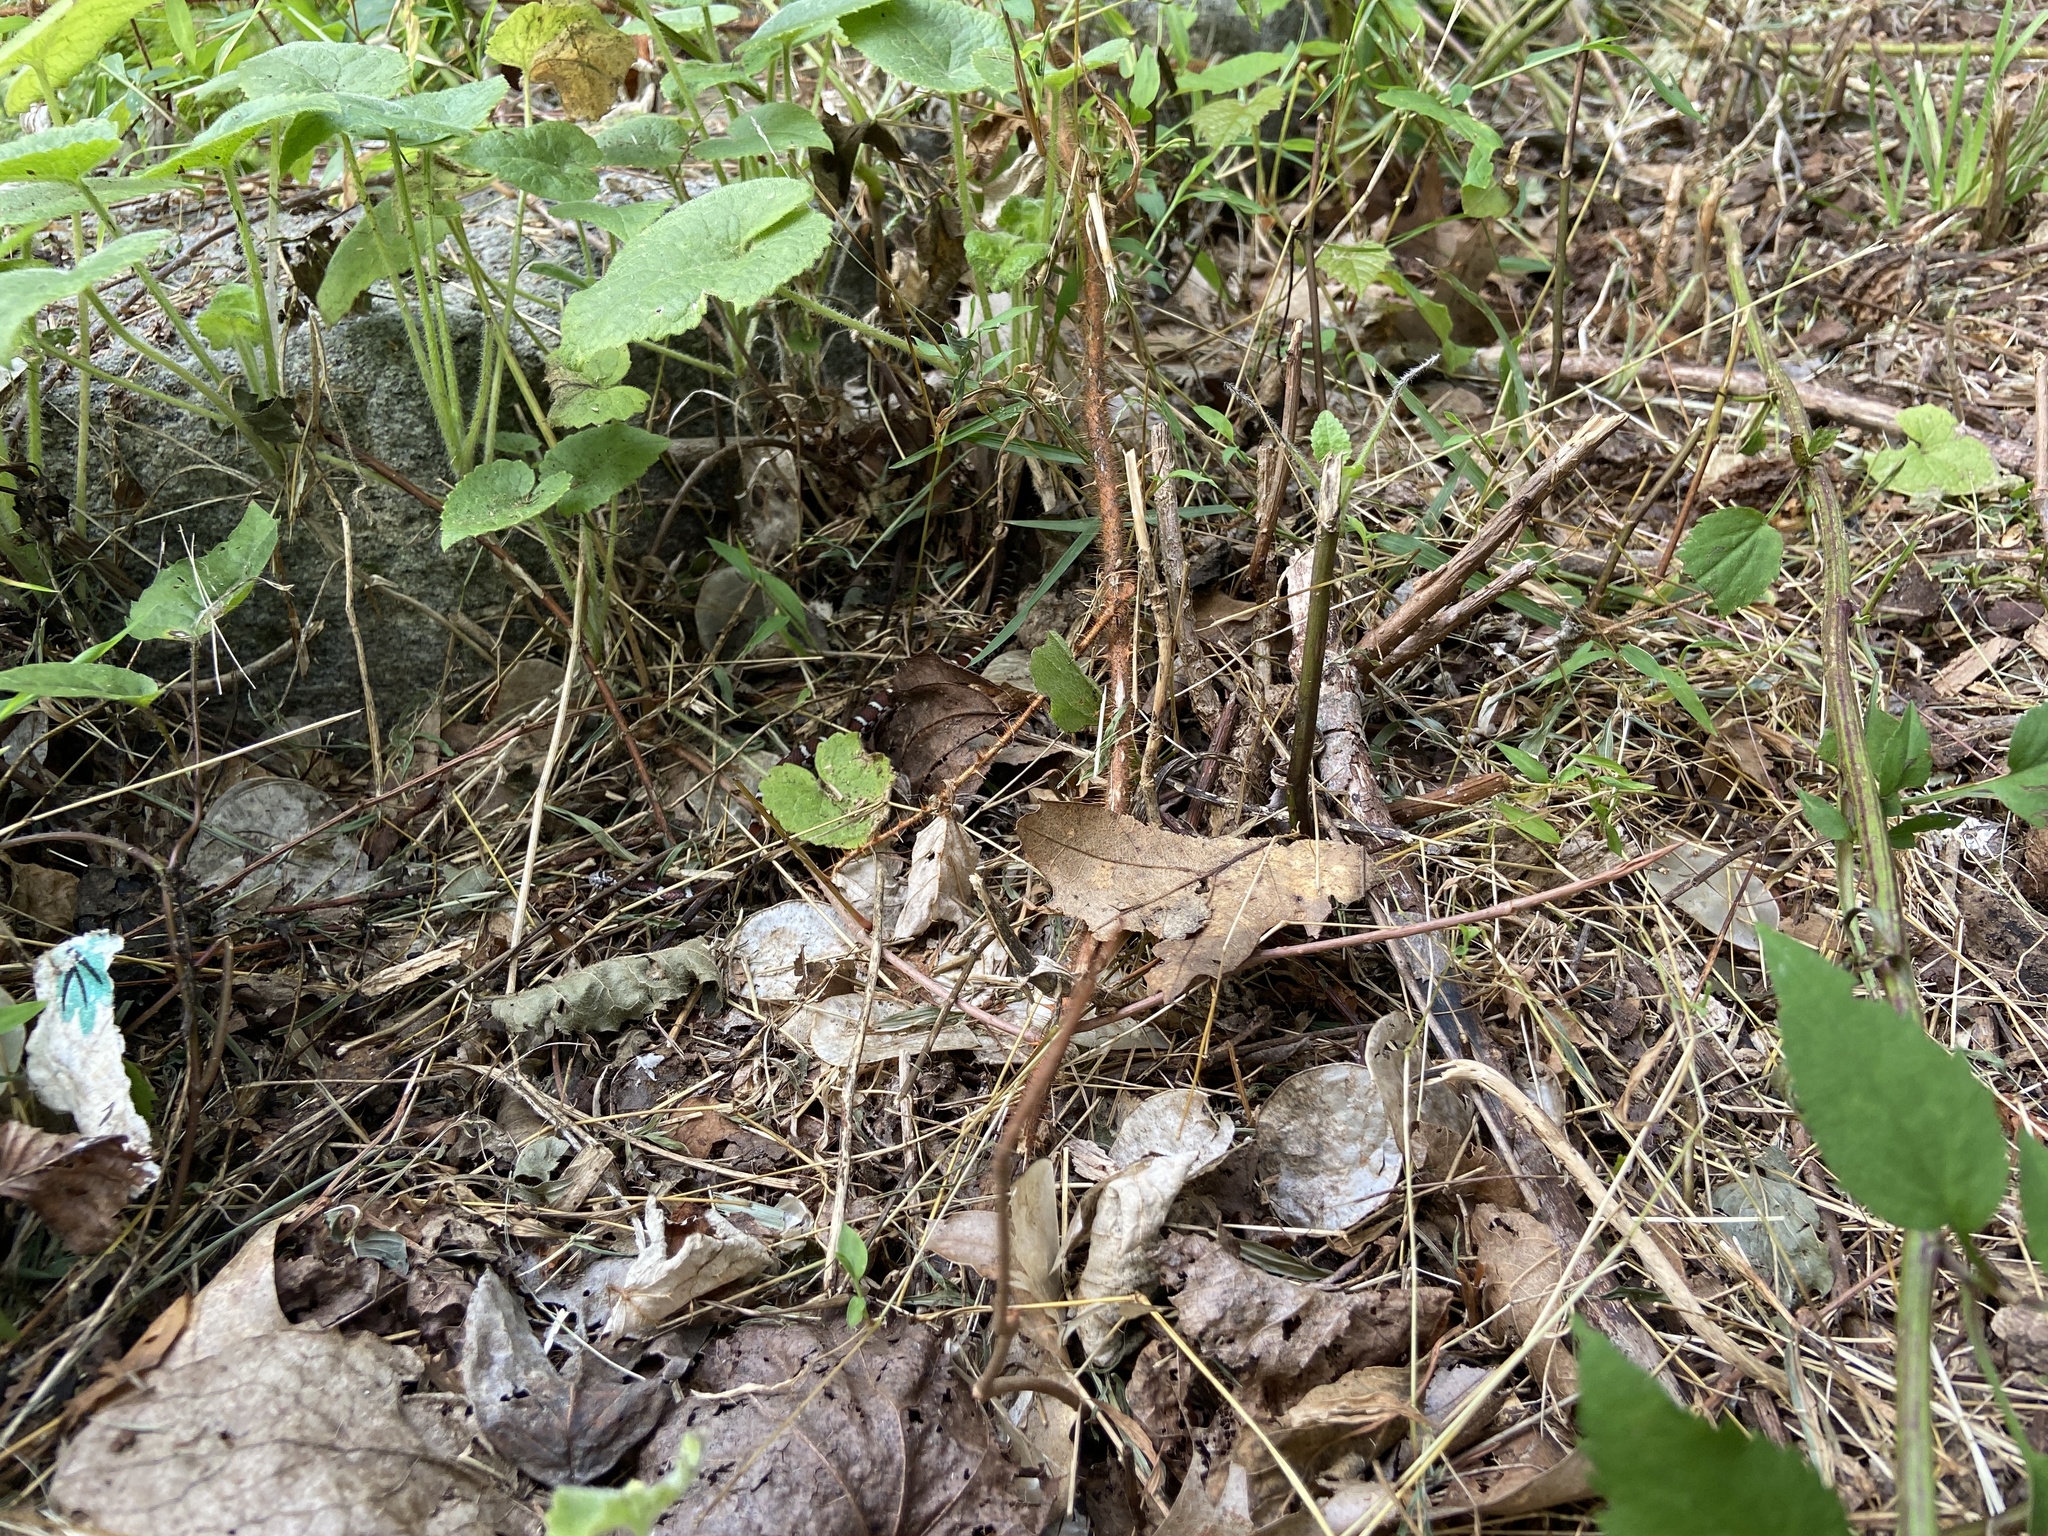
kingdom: Animalia
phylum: Chordata
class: Squamata
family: Colubridae
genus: Lampropeltis
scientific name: Lampropeltis triangulum
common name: Eastern milksnake
